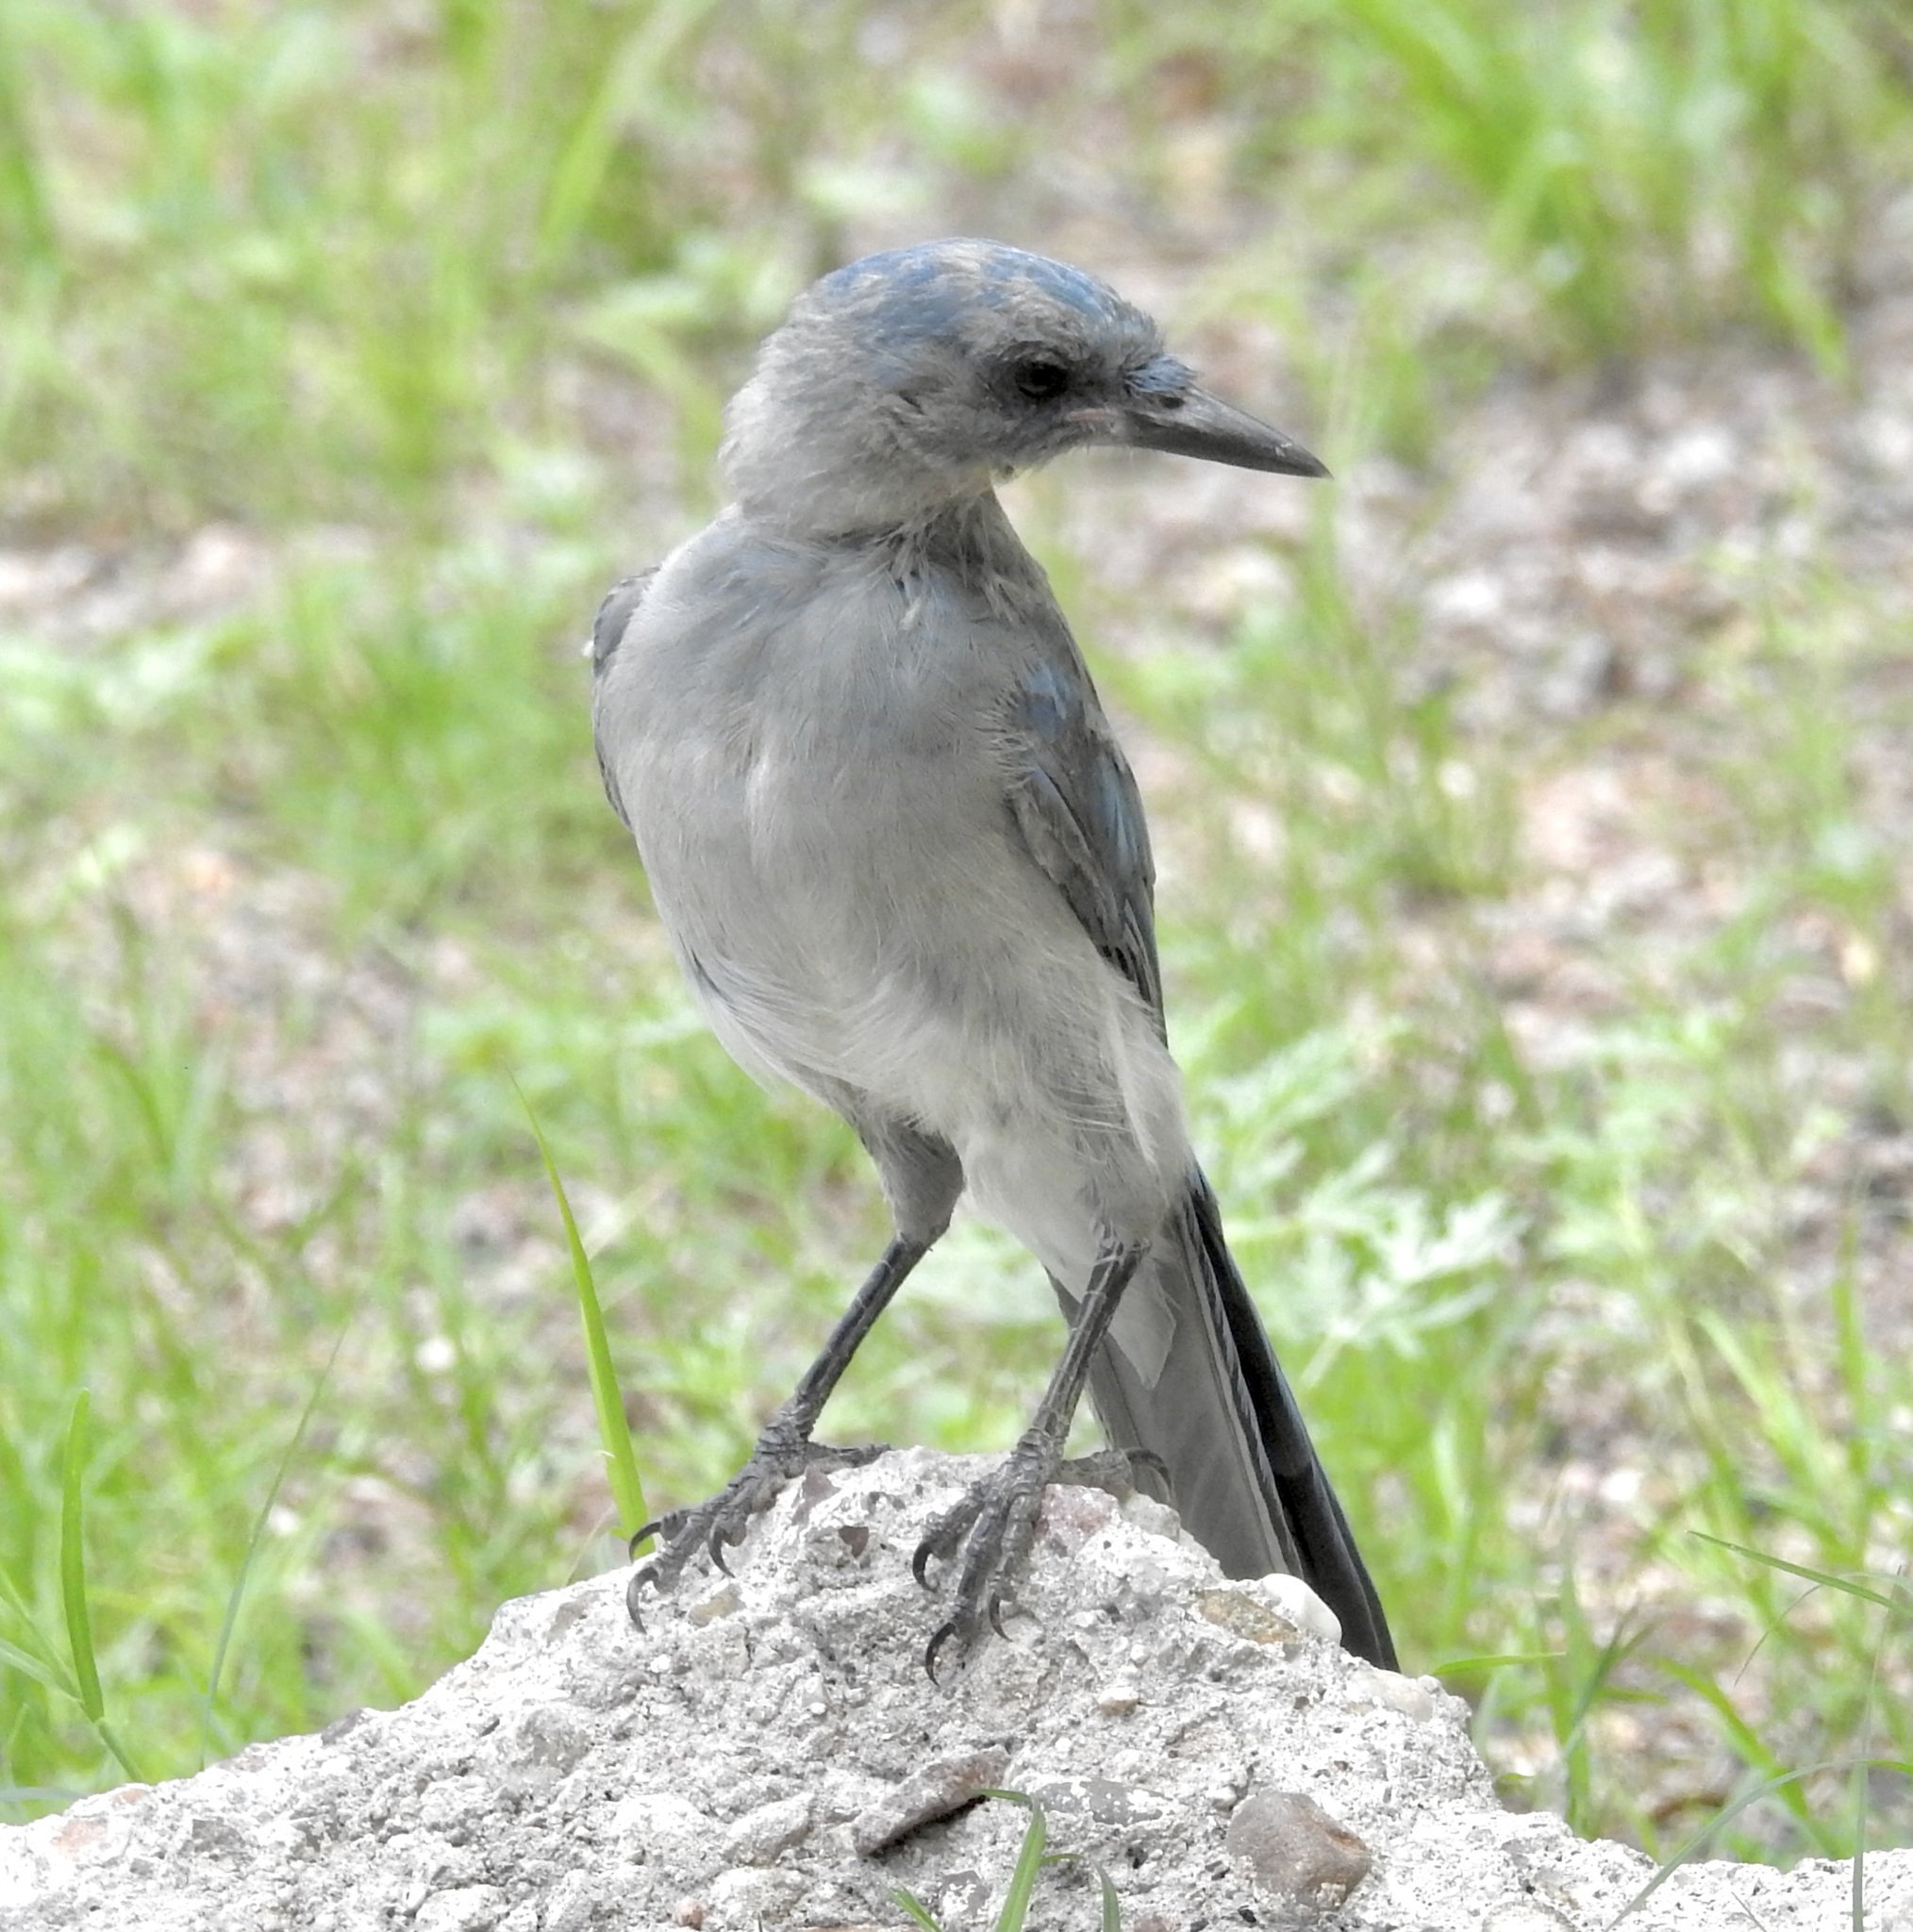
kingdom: Animalia
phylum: Chordata
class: Aves
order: Passeriformes
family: Corvidae
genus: Aphelocoma
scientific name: Aphelocoma wollweberi
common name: Mexican jay
